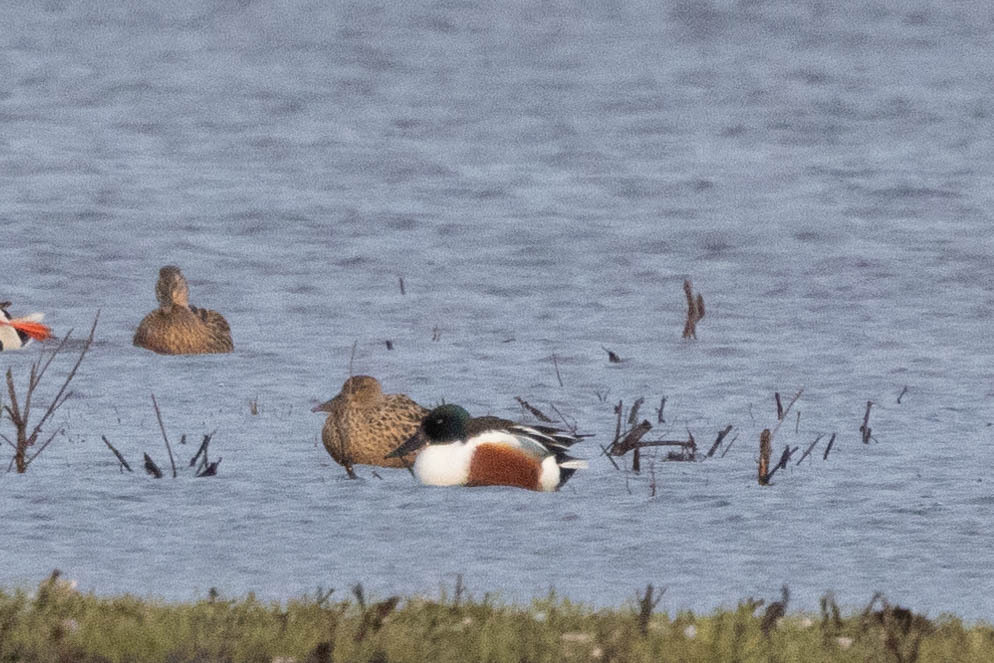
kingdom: Animalia
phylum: Chordata
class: Aves
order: Anseriformes
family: Anatidae
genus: Spatula
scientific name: Spatula clypeata
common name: Northern shoveler
